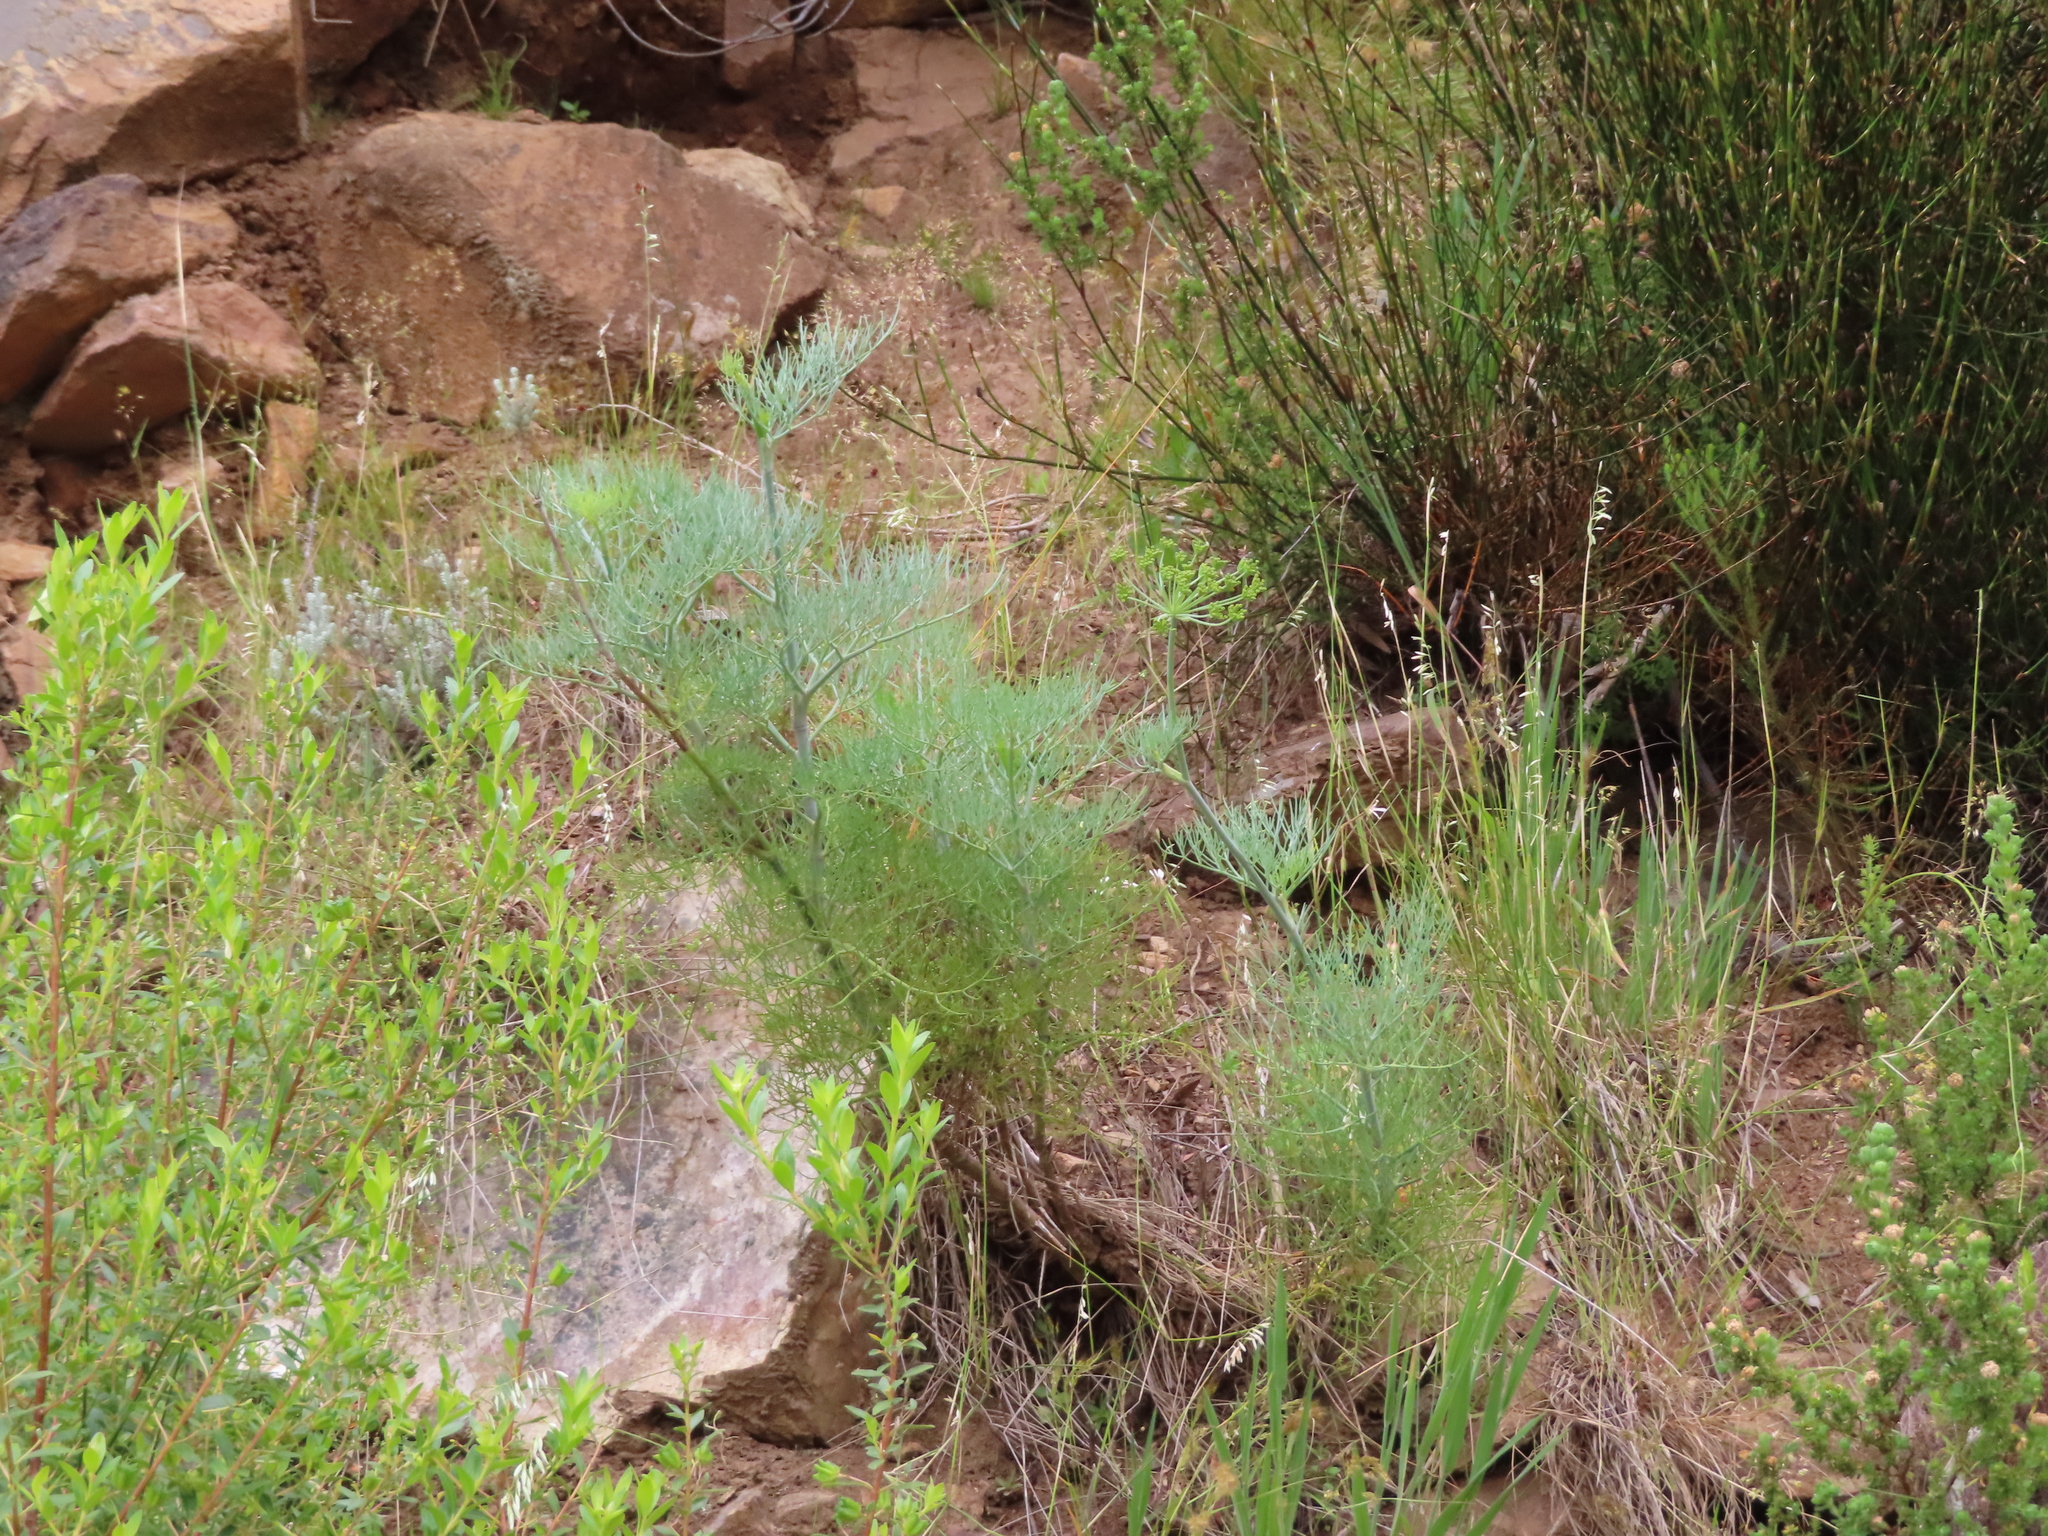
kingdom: Plantae
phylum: Tracheophyta
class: Magnoliopsida
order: Apiales
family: Apiaceae
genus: Notobubon
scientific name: Notobubon capense
